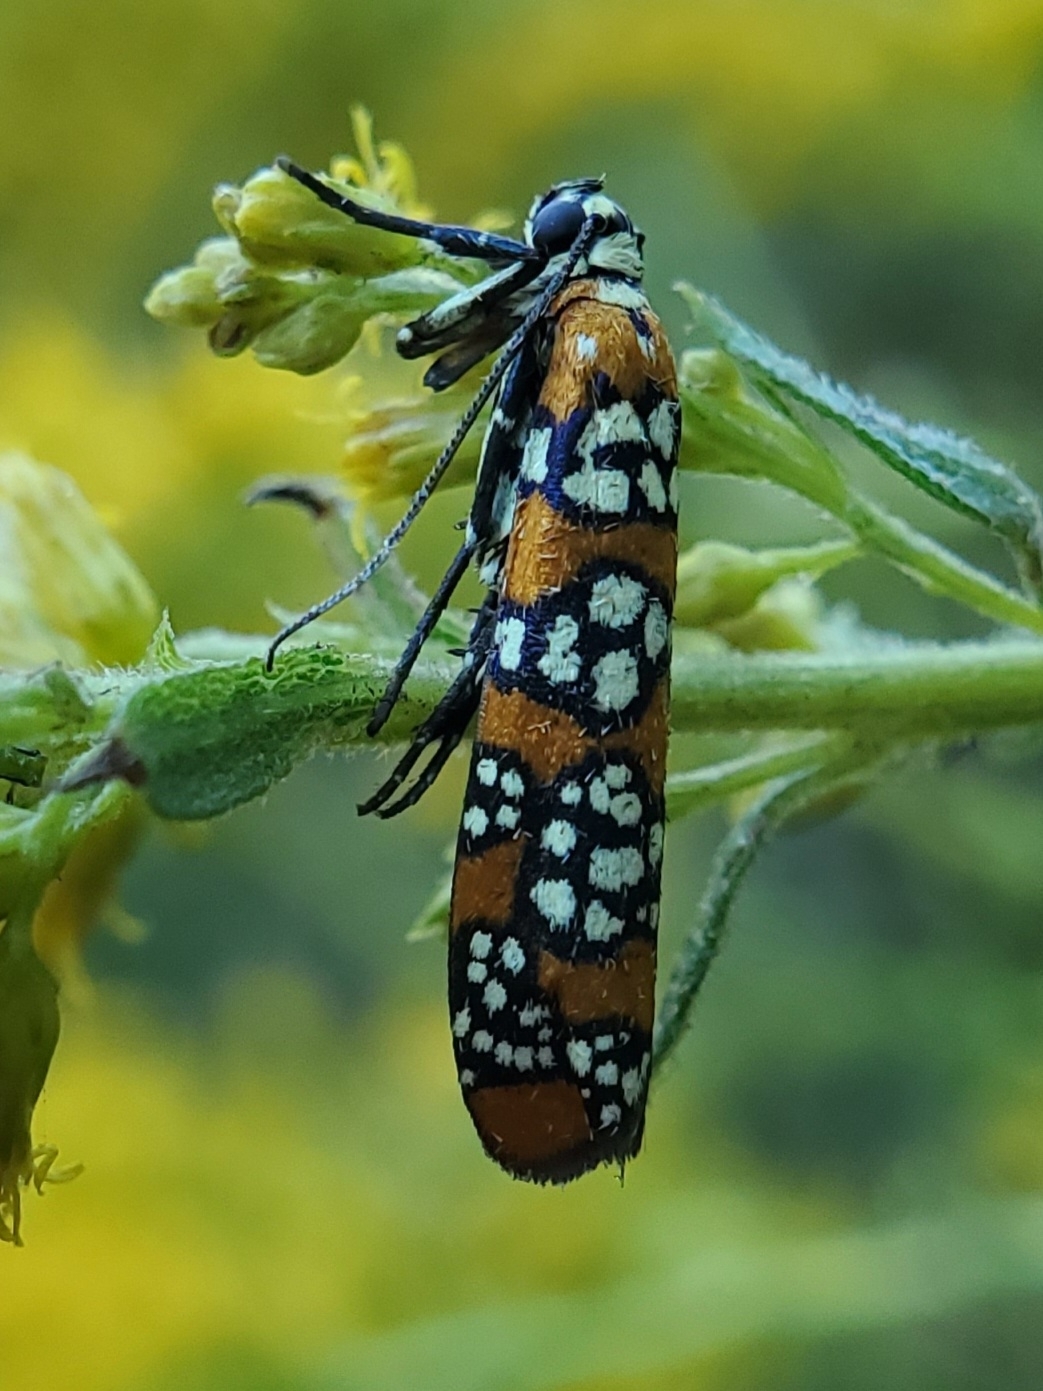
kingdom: Animalia
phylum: Arthropoda
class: Insecta
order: Lepidoptera
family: Attevidae
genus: Atteva
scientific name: Atteva punctella
